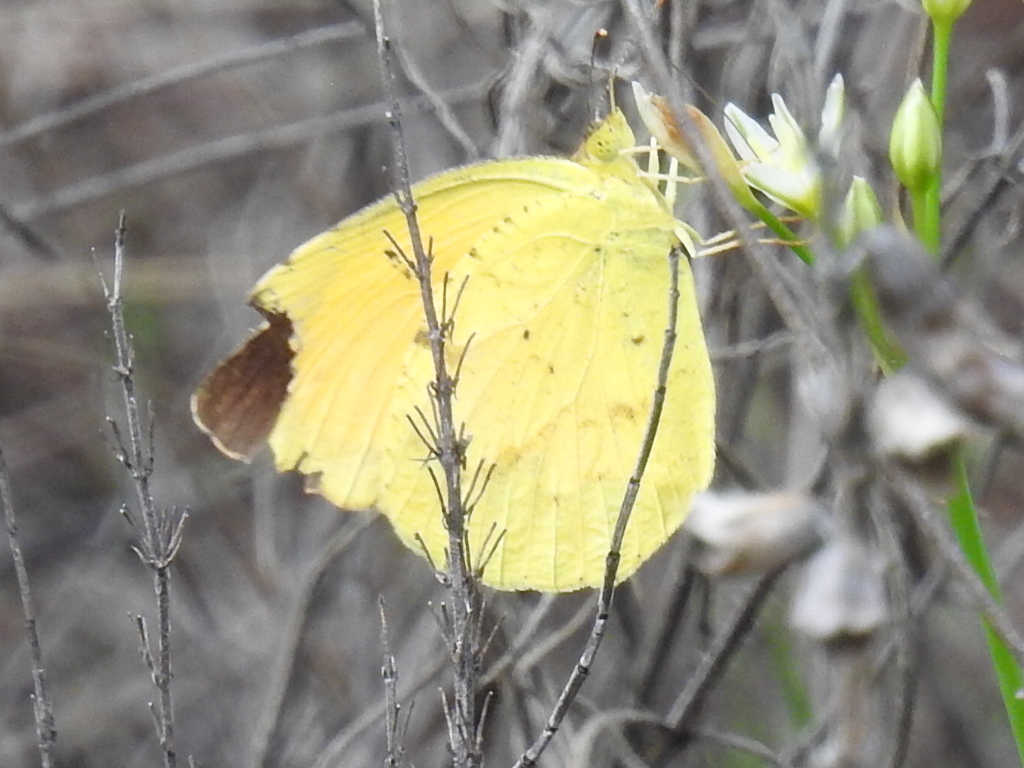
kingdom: Animalia
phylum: Arthropoda
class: Insecta
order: Lepidoptera
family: Pieridae
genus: Abaeis
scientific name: Abaeis nicippe
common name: Sleepy orange
